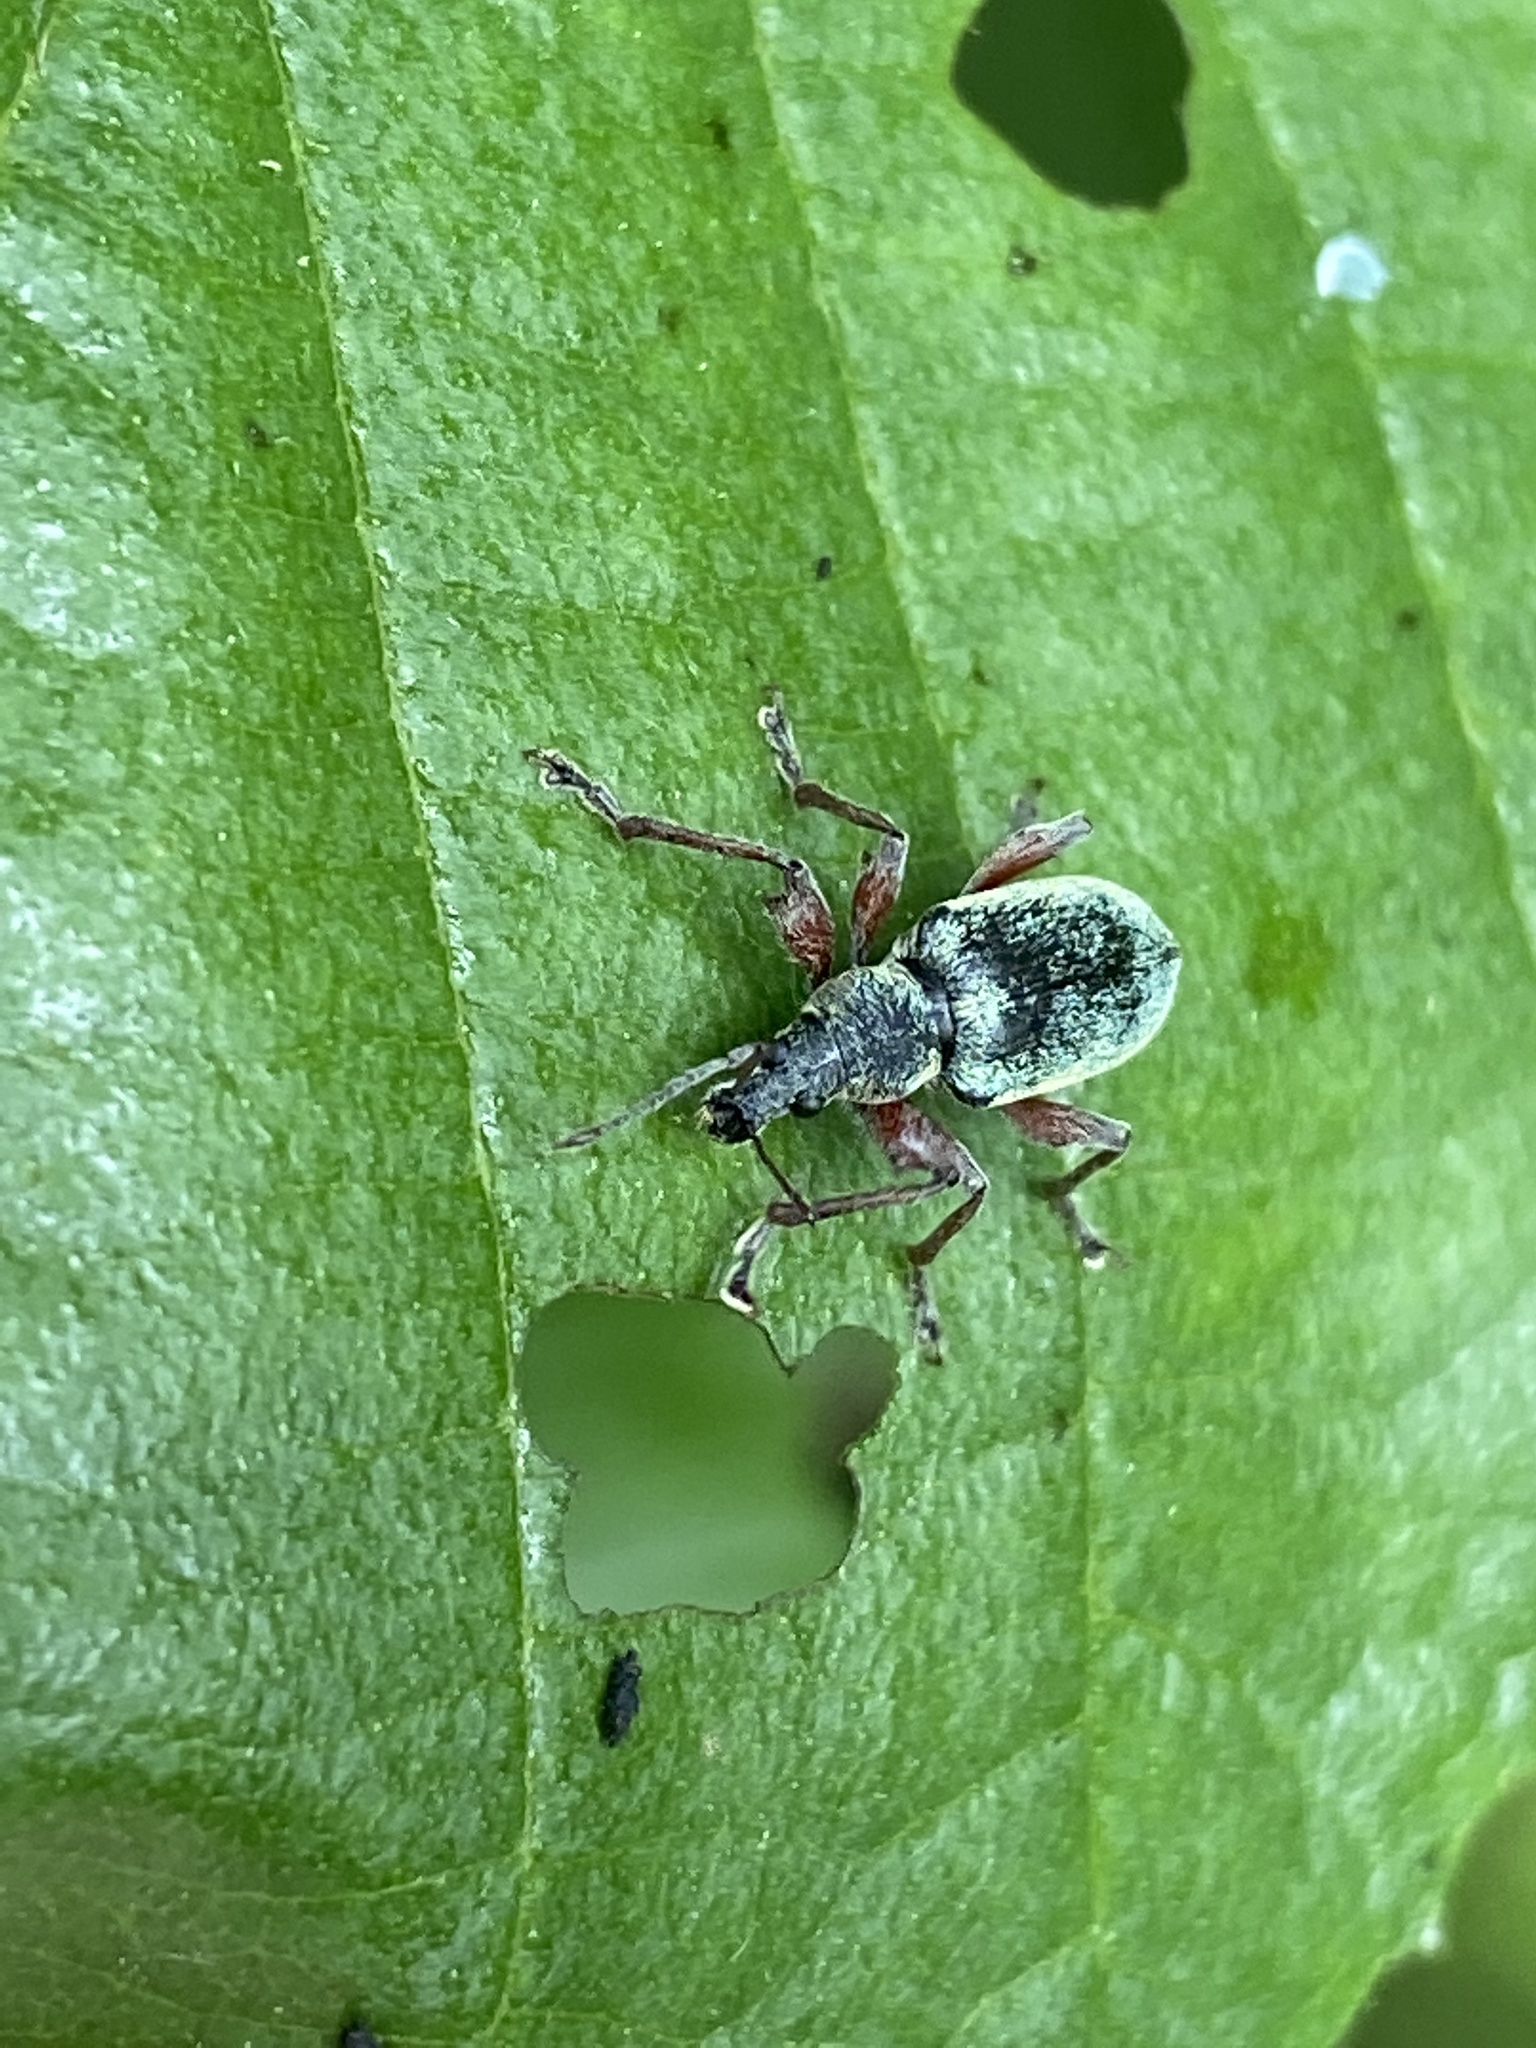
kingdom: Animalia
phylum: Arthropoda
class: Insecta
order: Coleoptera
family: Curculionidae
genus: Phyllobius
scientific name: Phyllobius pomaceus
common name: Green nettle weevil
